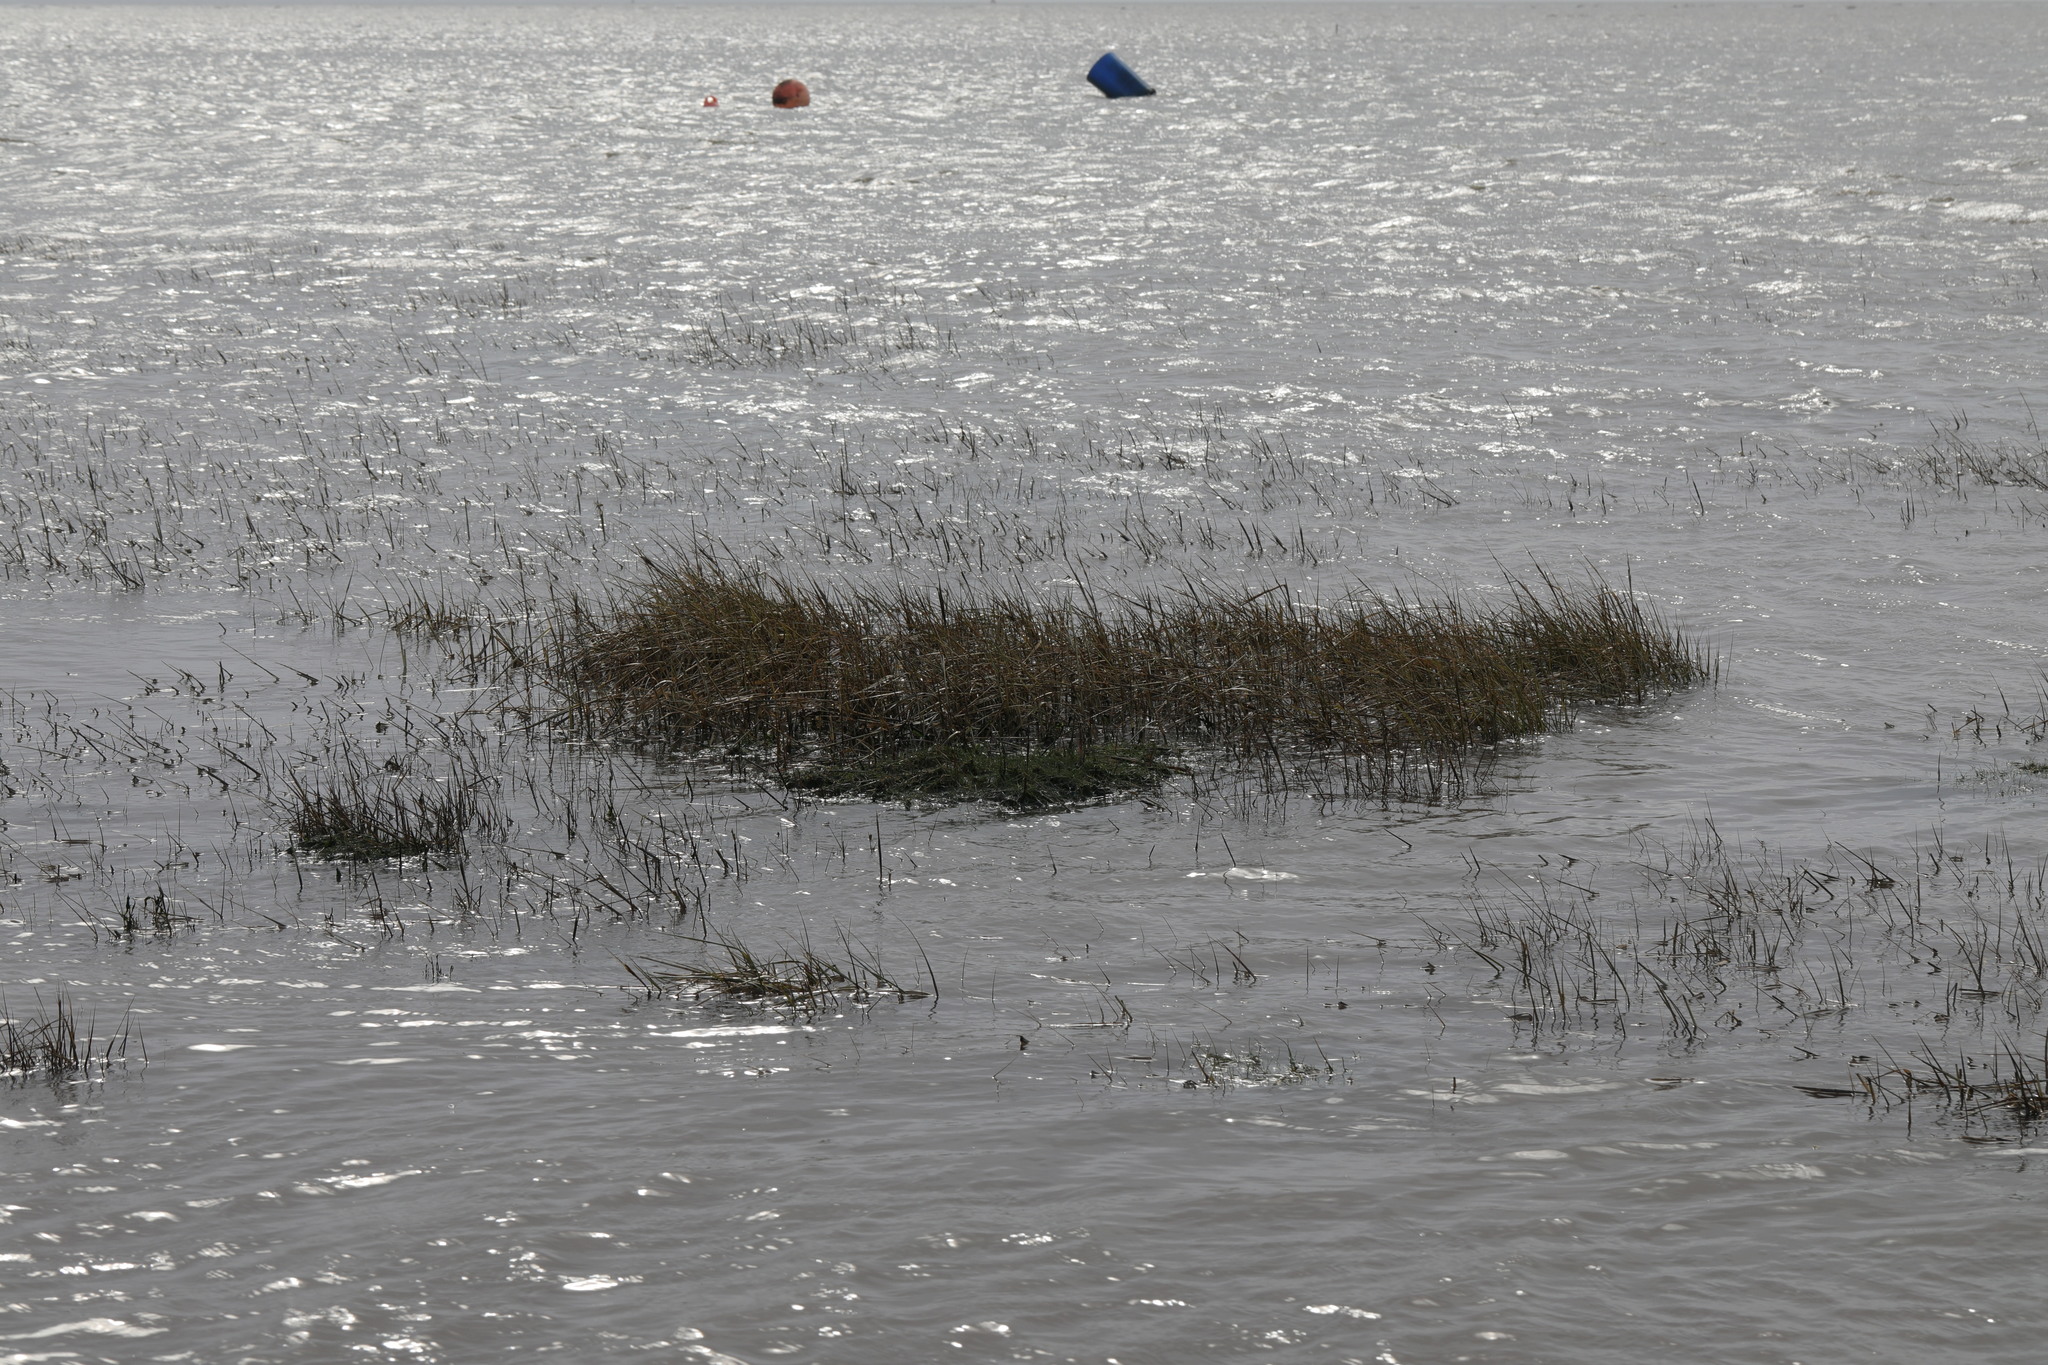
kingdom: Plantae
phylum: Tracheophyta
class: Liliopsida
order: Poales
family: Poaceae
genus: Sporobolus
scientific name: Sporobolus anglicus
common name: English cordgrass
